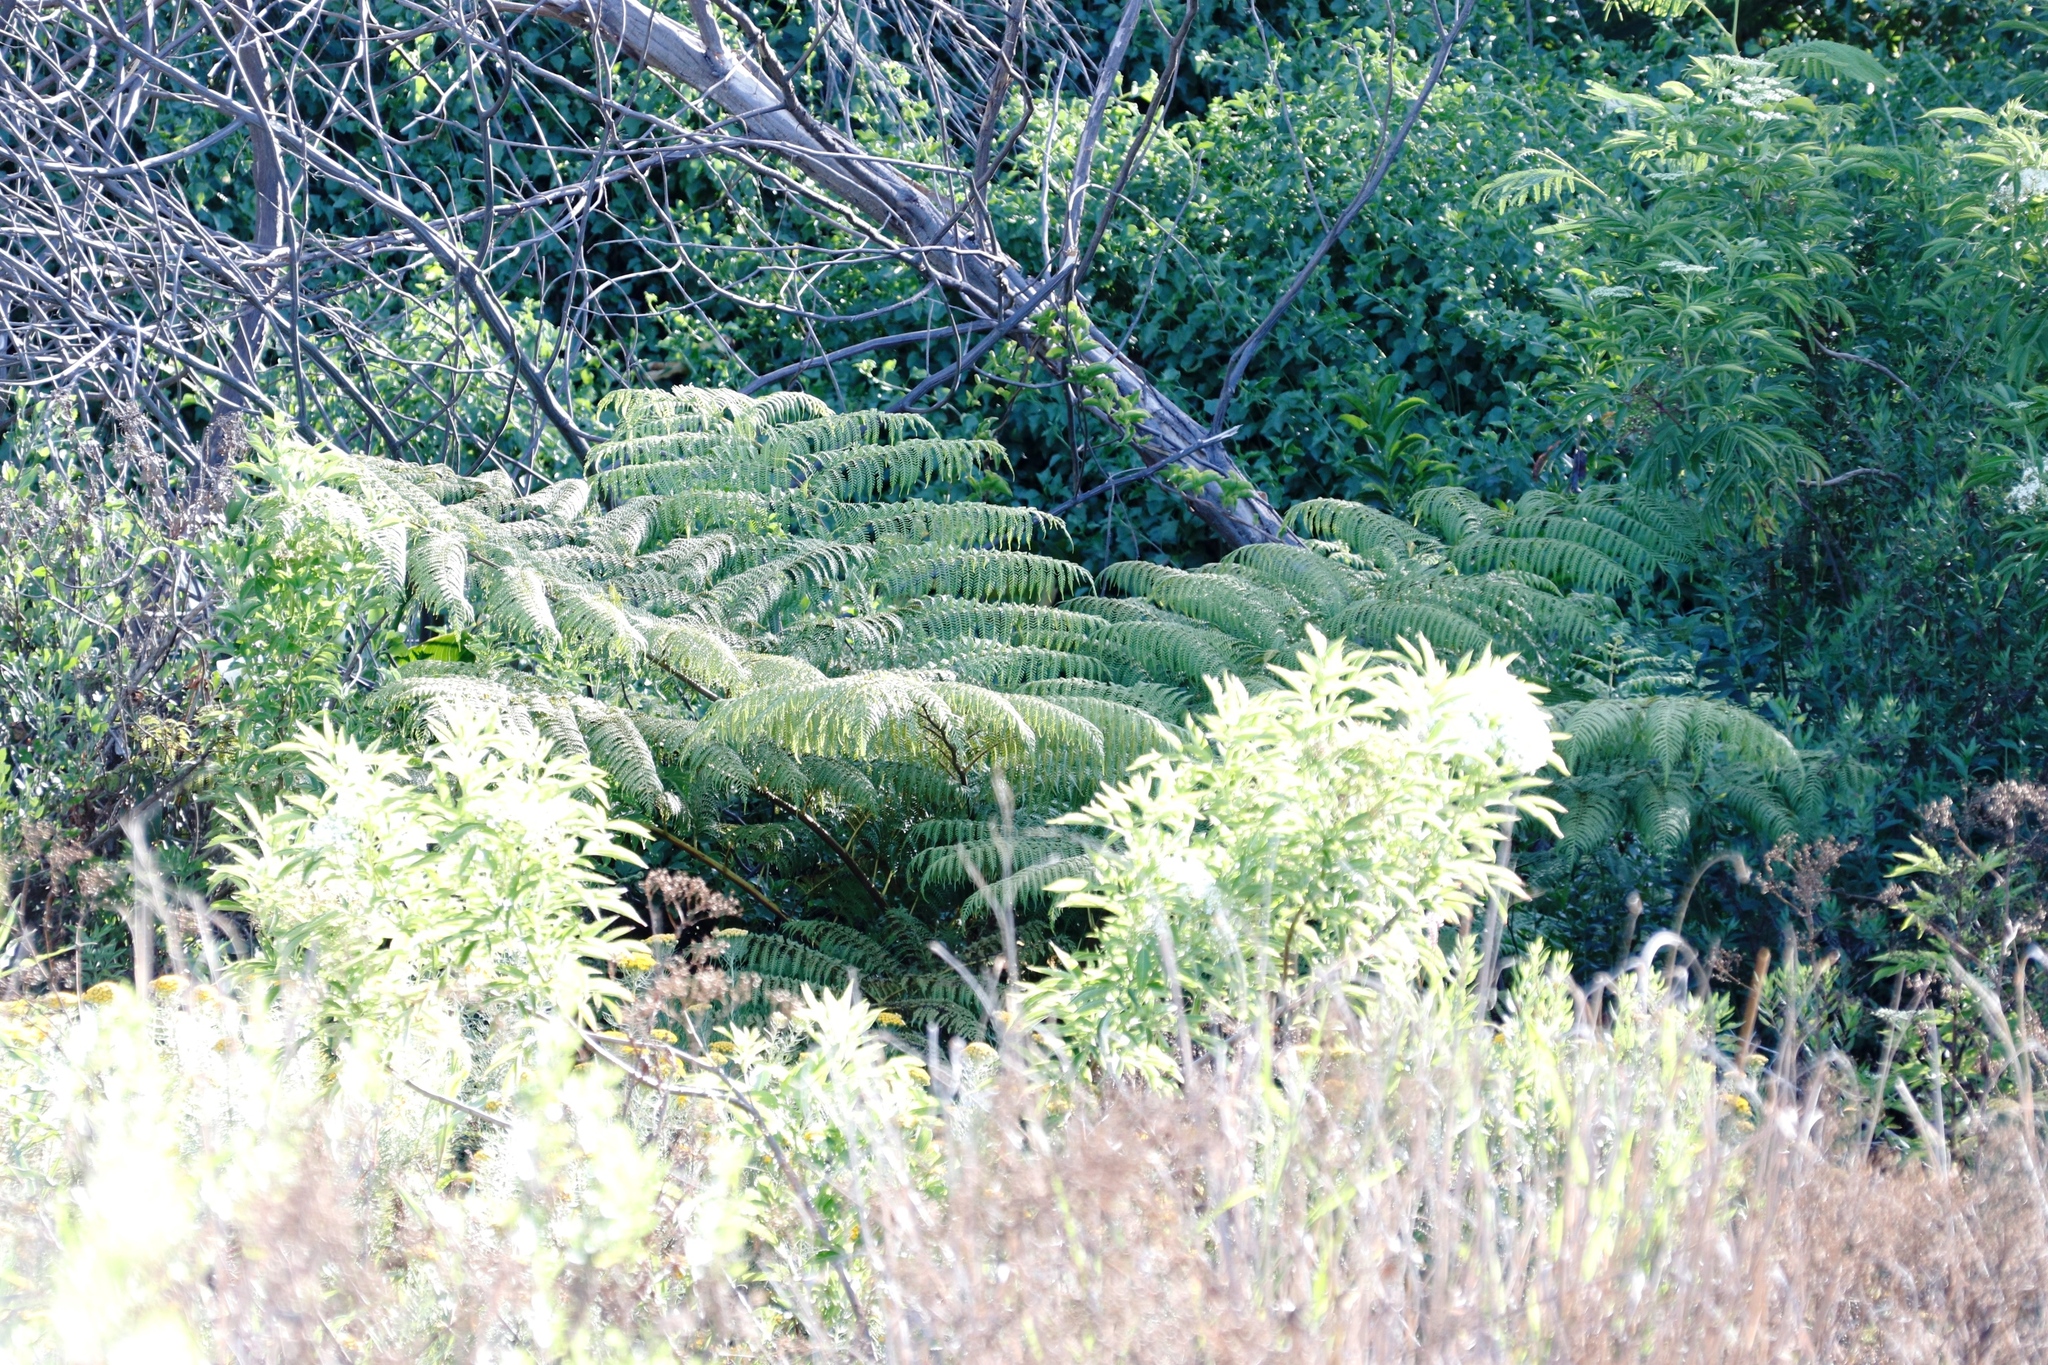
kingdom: Plantae
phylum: Tracheophyta
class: Polypodiopsida
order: Cyatheales
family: Cyatheaceae
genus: Sphaeropteris
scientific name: Sphaeropteris cooperi
